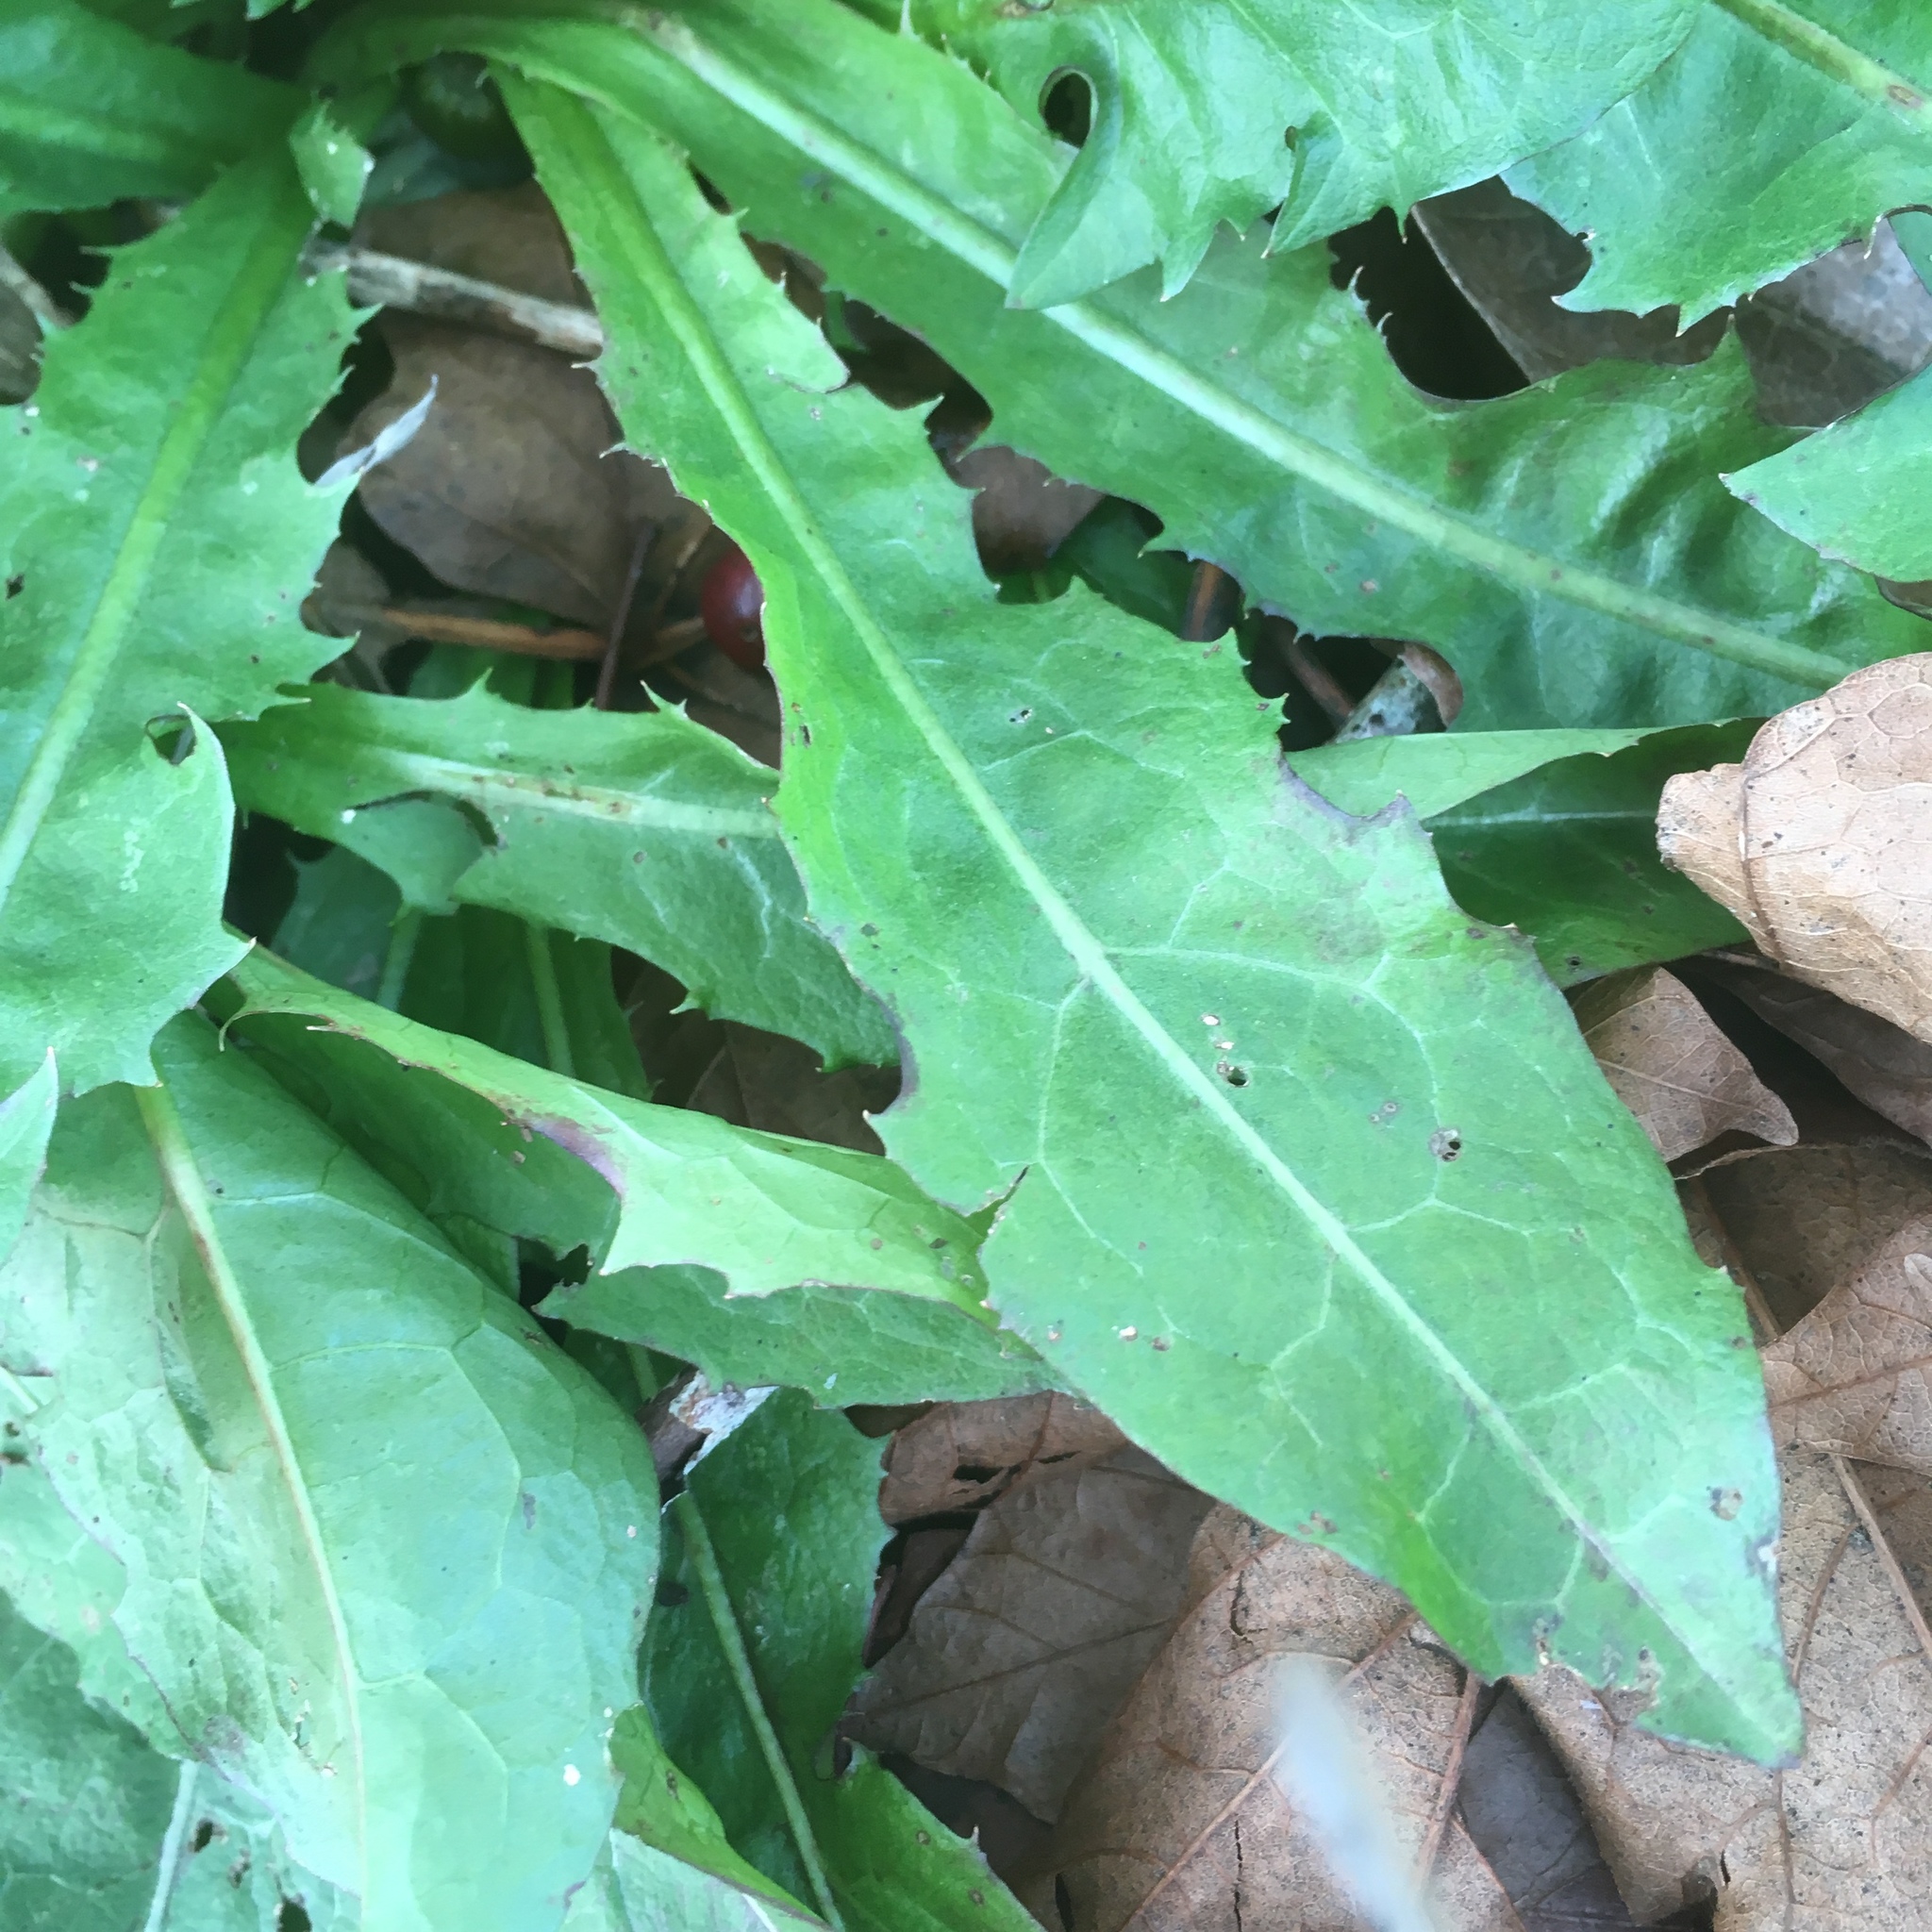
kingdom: Plantae
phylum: Tracheophyta
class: Magnoliopsida
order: Asterales
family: Asteraceae
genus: Taraxacum
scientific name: Taraxacum officinale
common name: Common dandelion
